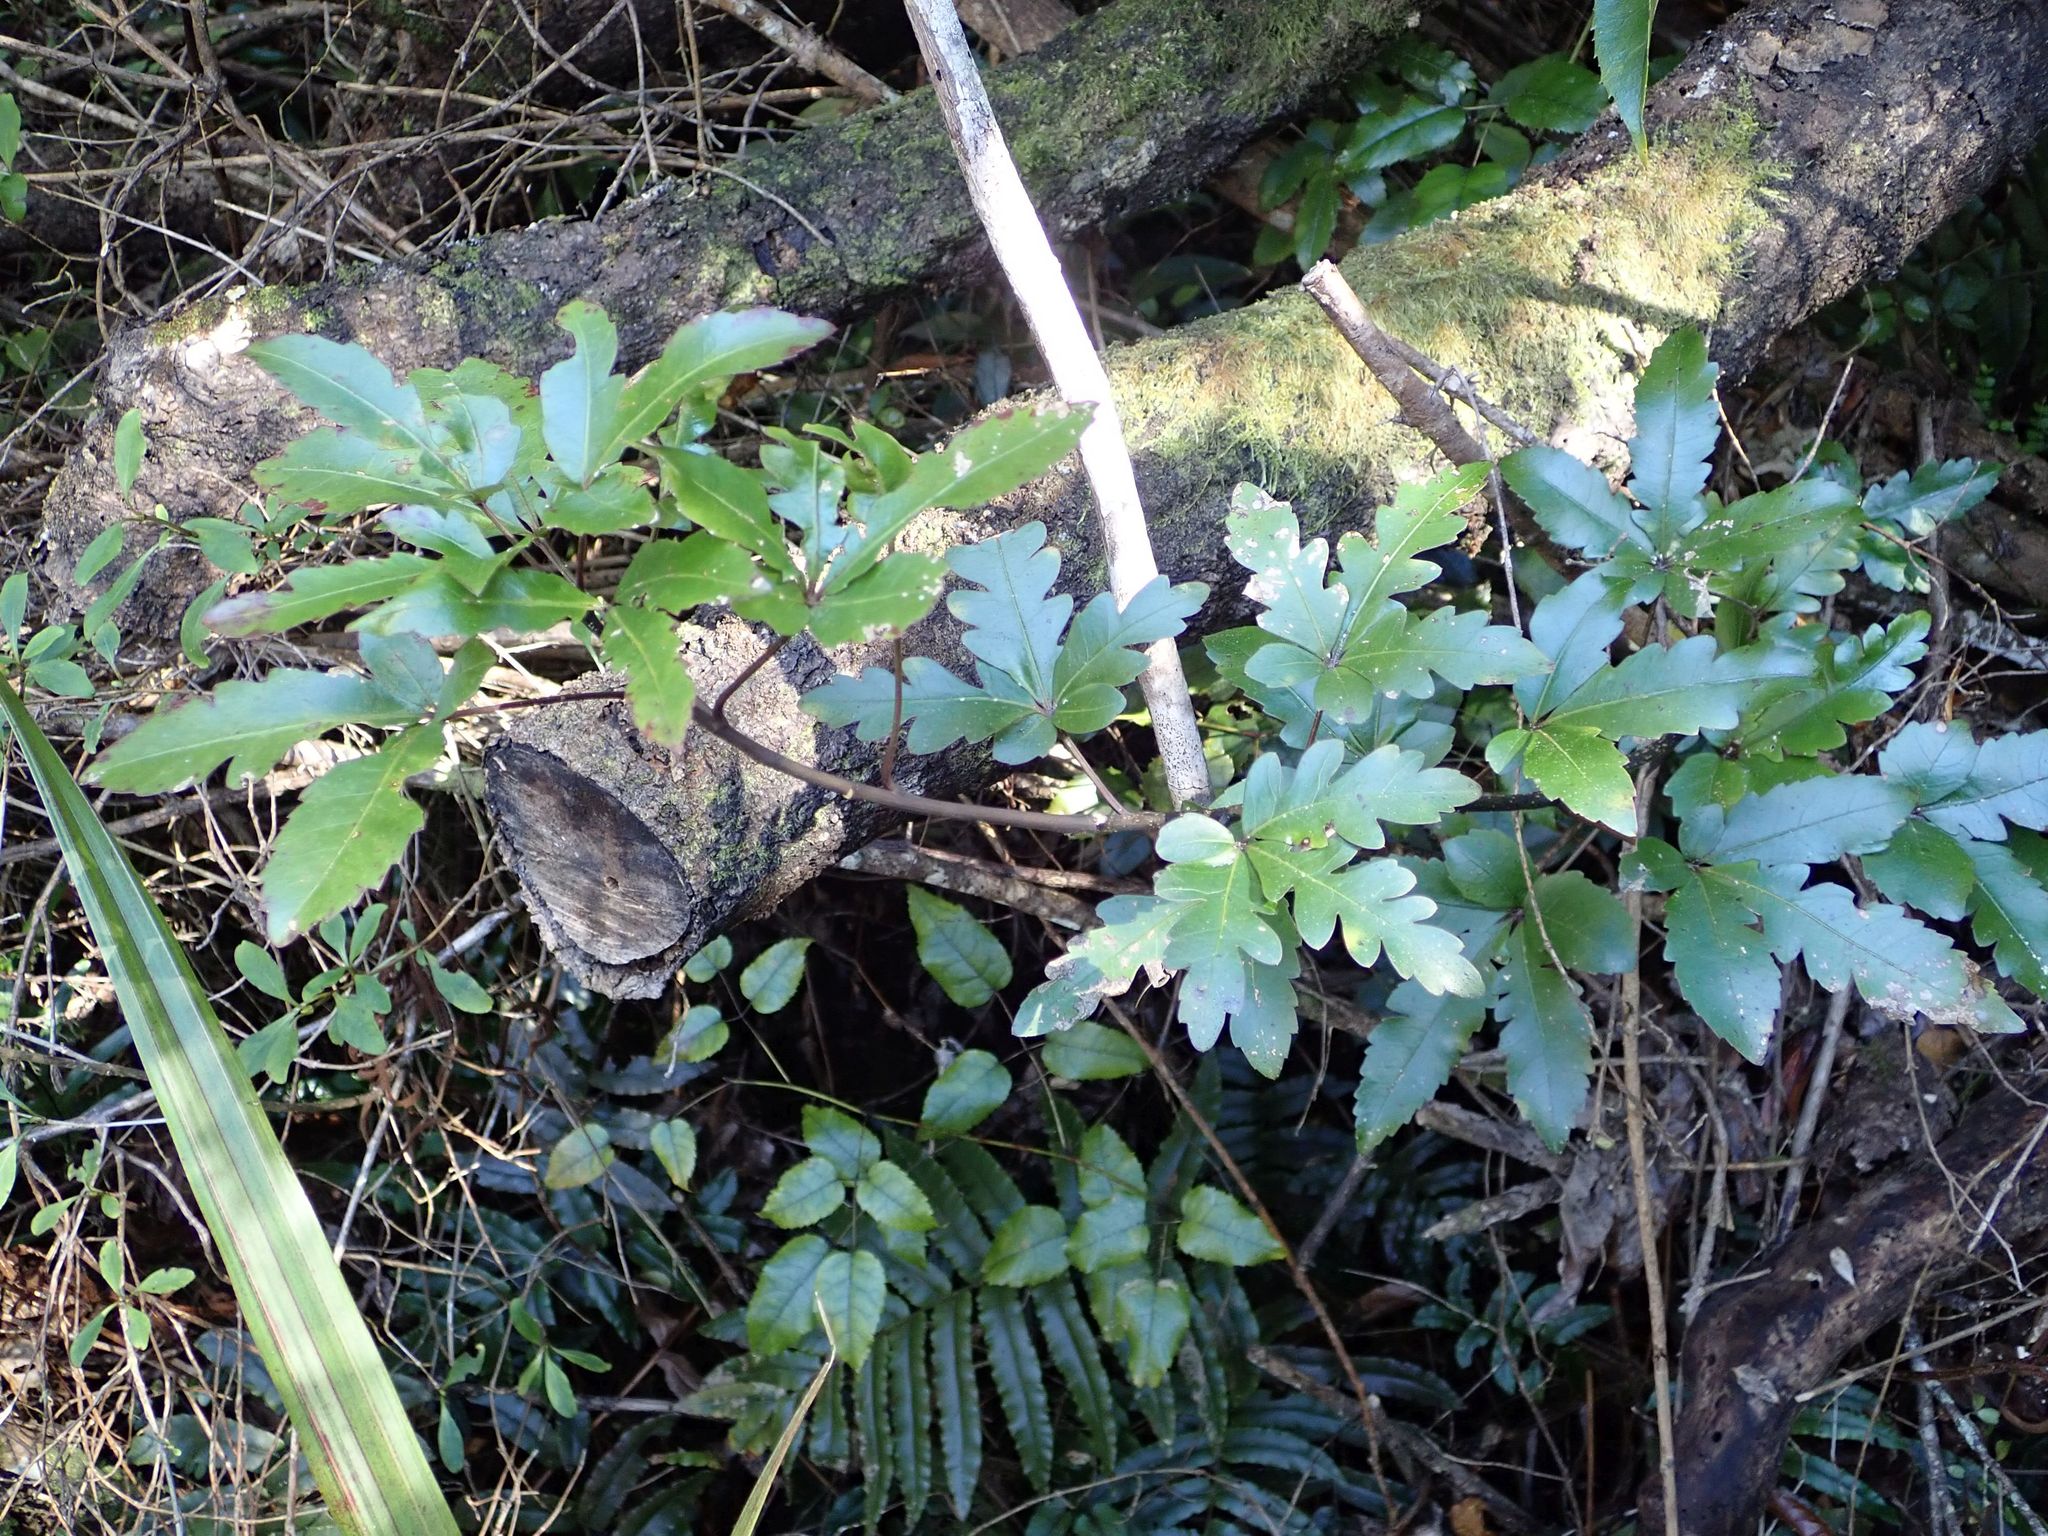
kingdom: Plantae
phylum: Tracheophyta
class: Magnoliopsida
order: Apiales
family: Araliaceae
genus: Raukaua
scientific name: Raukaua edgerleyi
